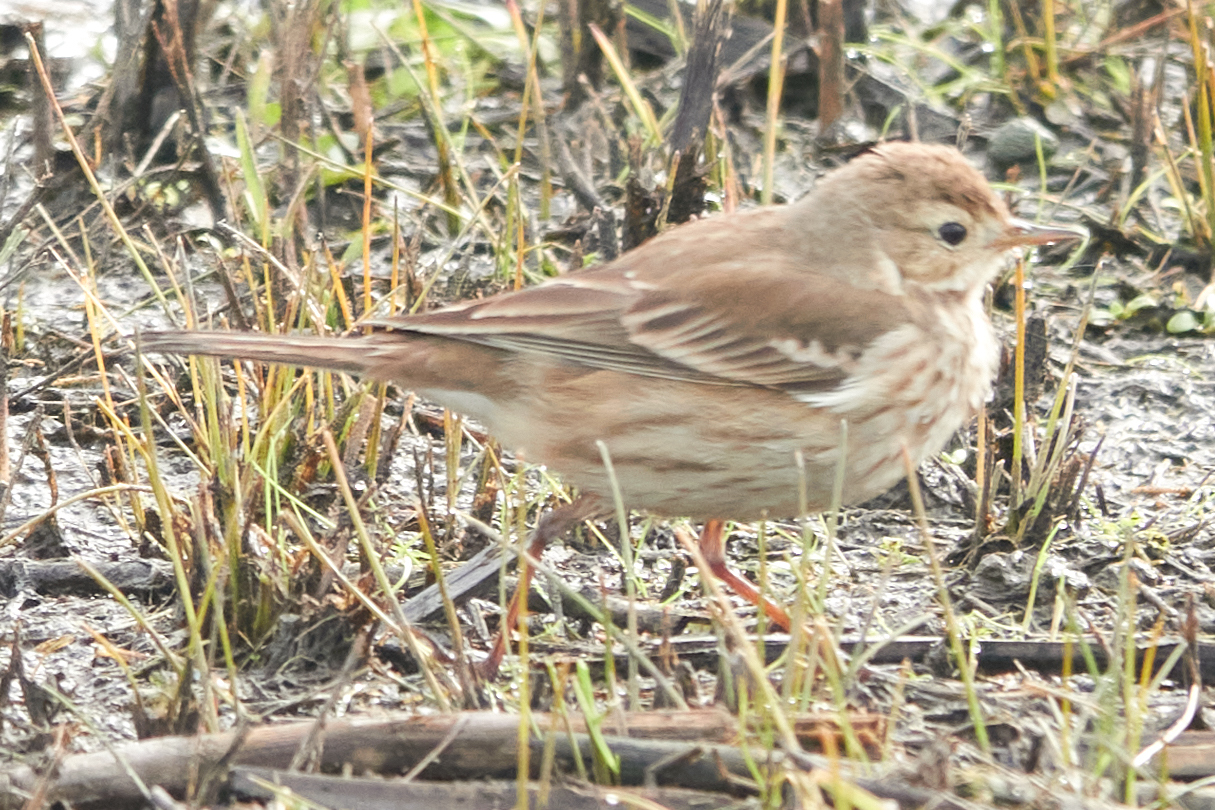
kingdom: Animalia
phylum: Chordata
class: Aves
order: Passeriformes
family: Motacillidae
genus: Anthus
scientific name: Anthus rubescens
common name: Buff-bellied pipit
